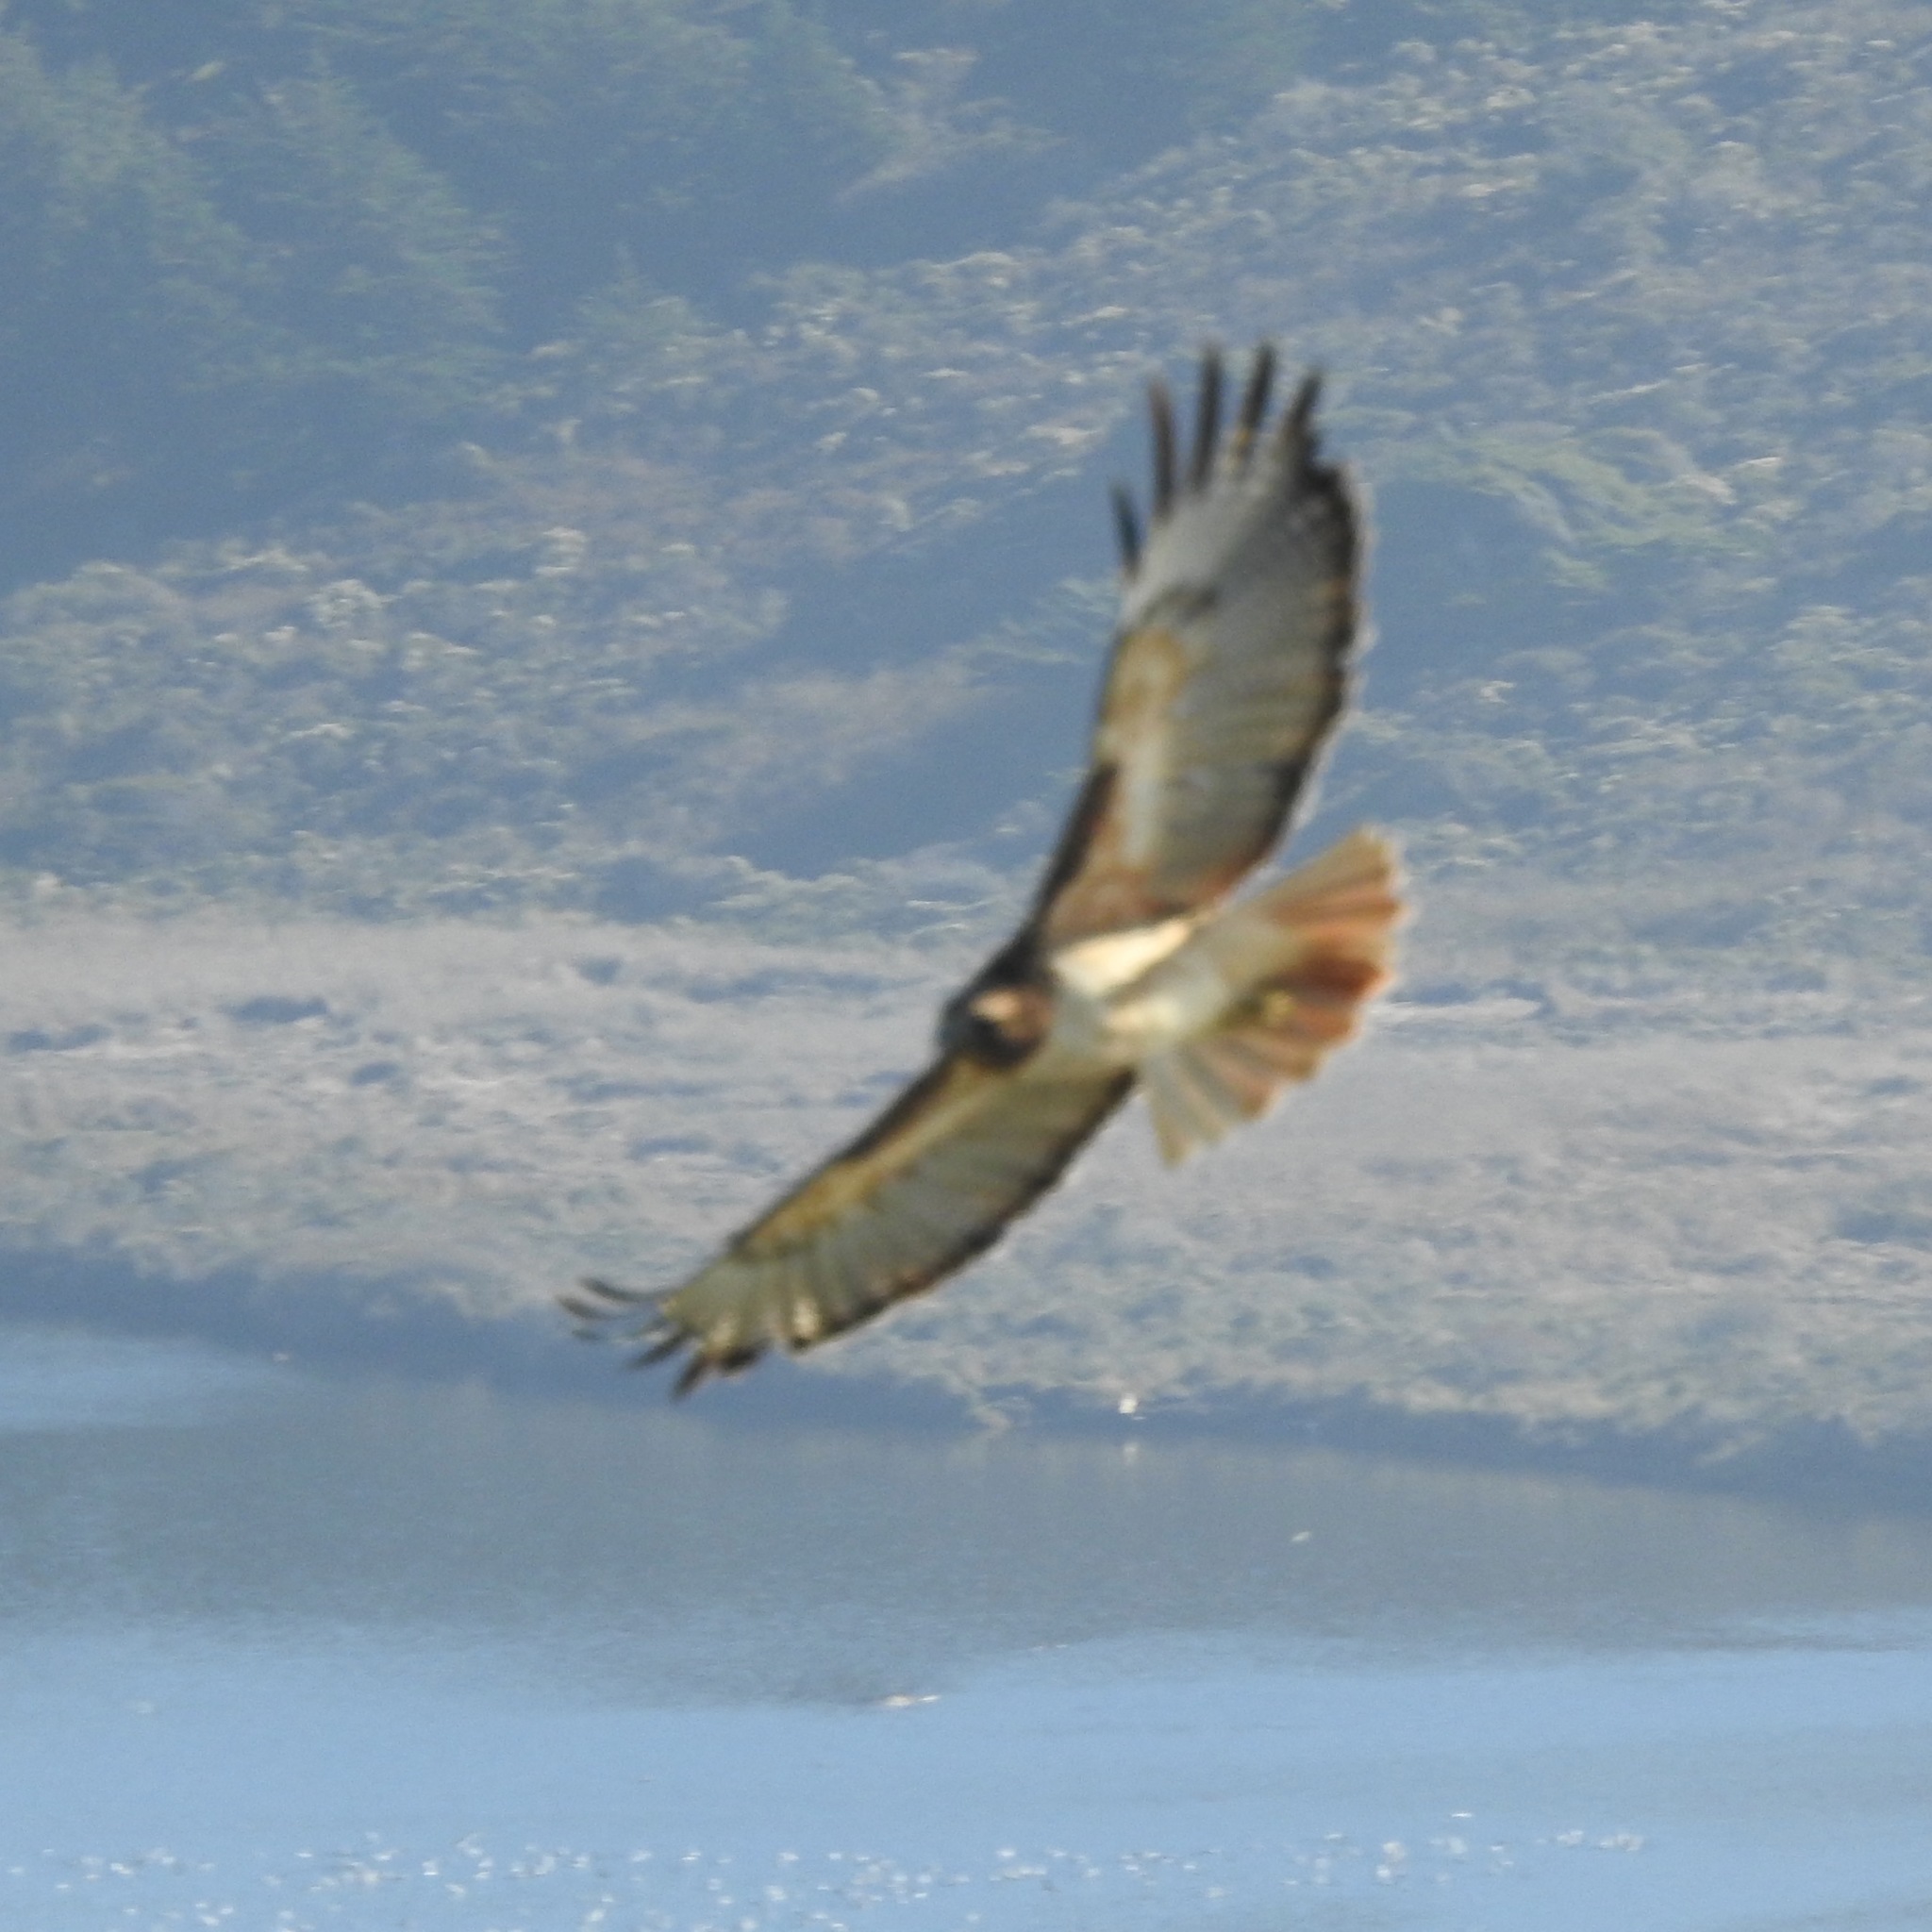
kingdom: Animalia
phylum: Chordata
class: Aves
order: Accipitriformes
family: Accipitridae
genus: Buteo
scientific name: Buteo jamaicensis
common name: Red-tailed hawk
